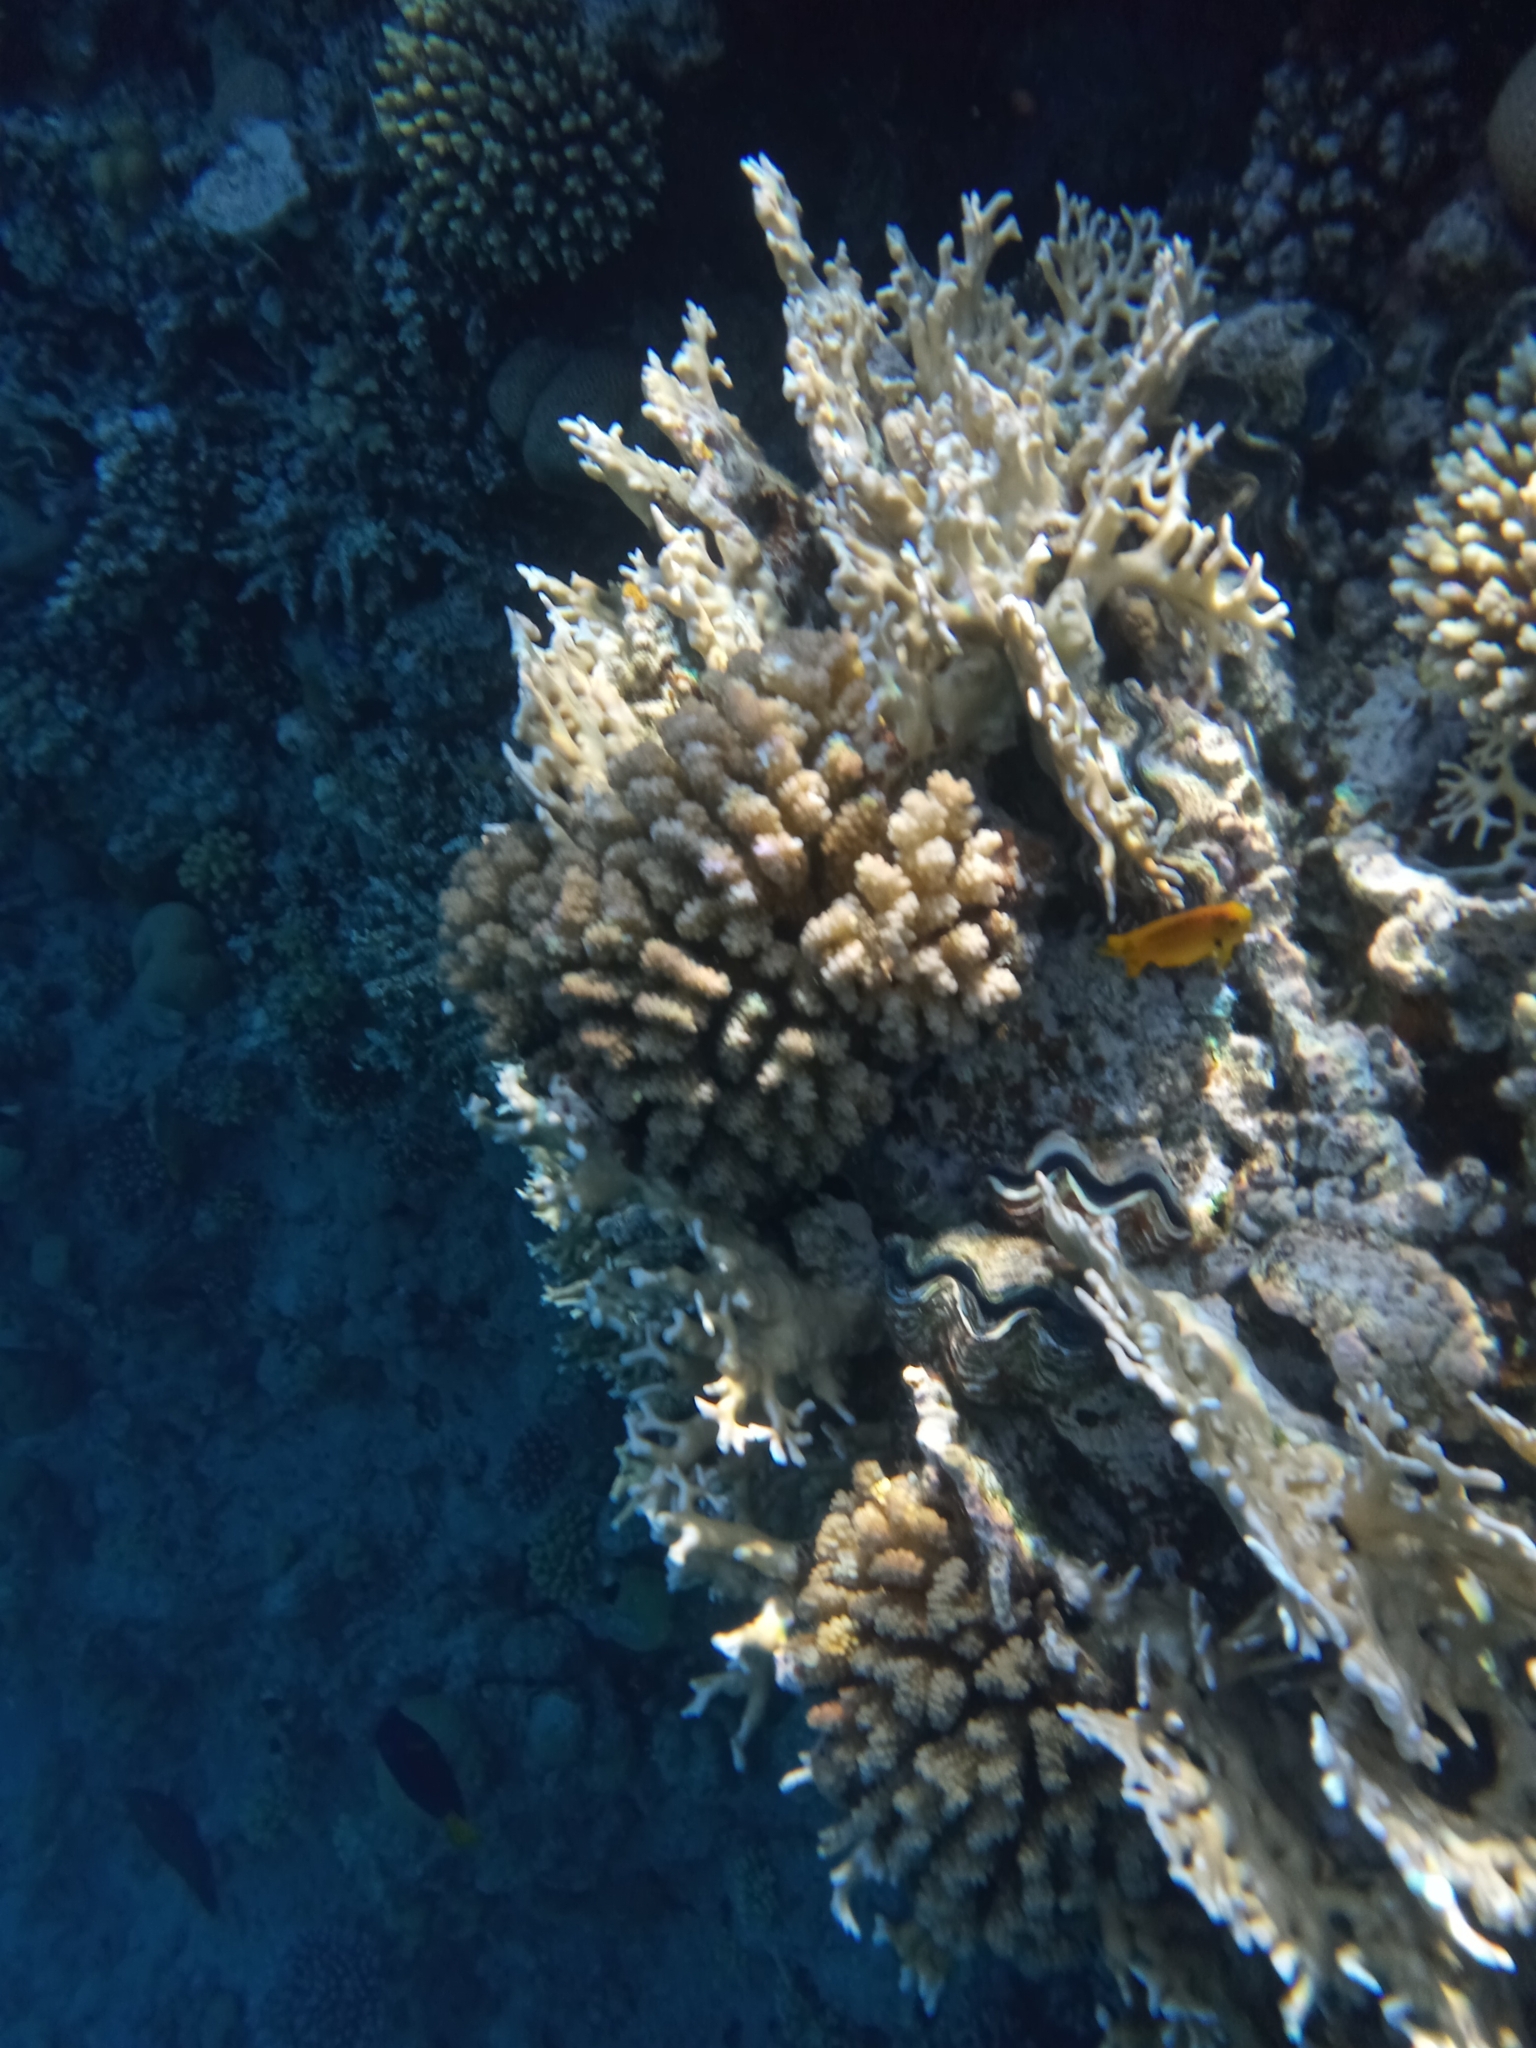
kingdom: Animalia
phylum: Cnidaria
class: Anthozoa
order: Scleractinia
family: Pocilloporidae
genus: Pocillopora
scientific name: Pocillopora verrucosa
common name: Cauliflower coral
